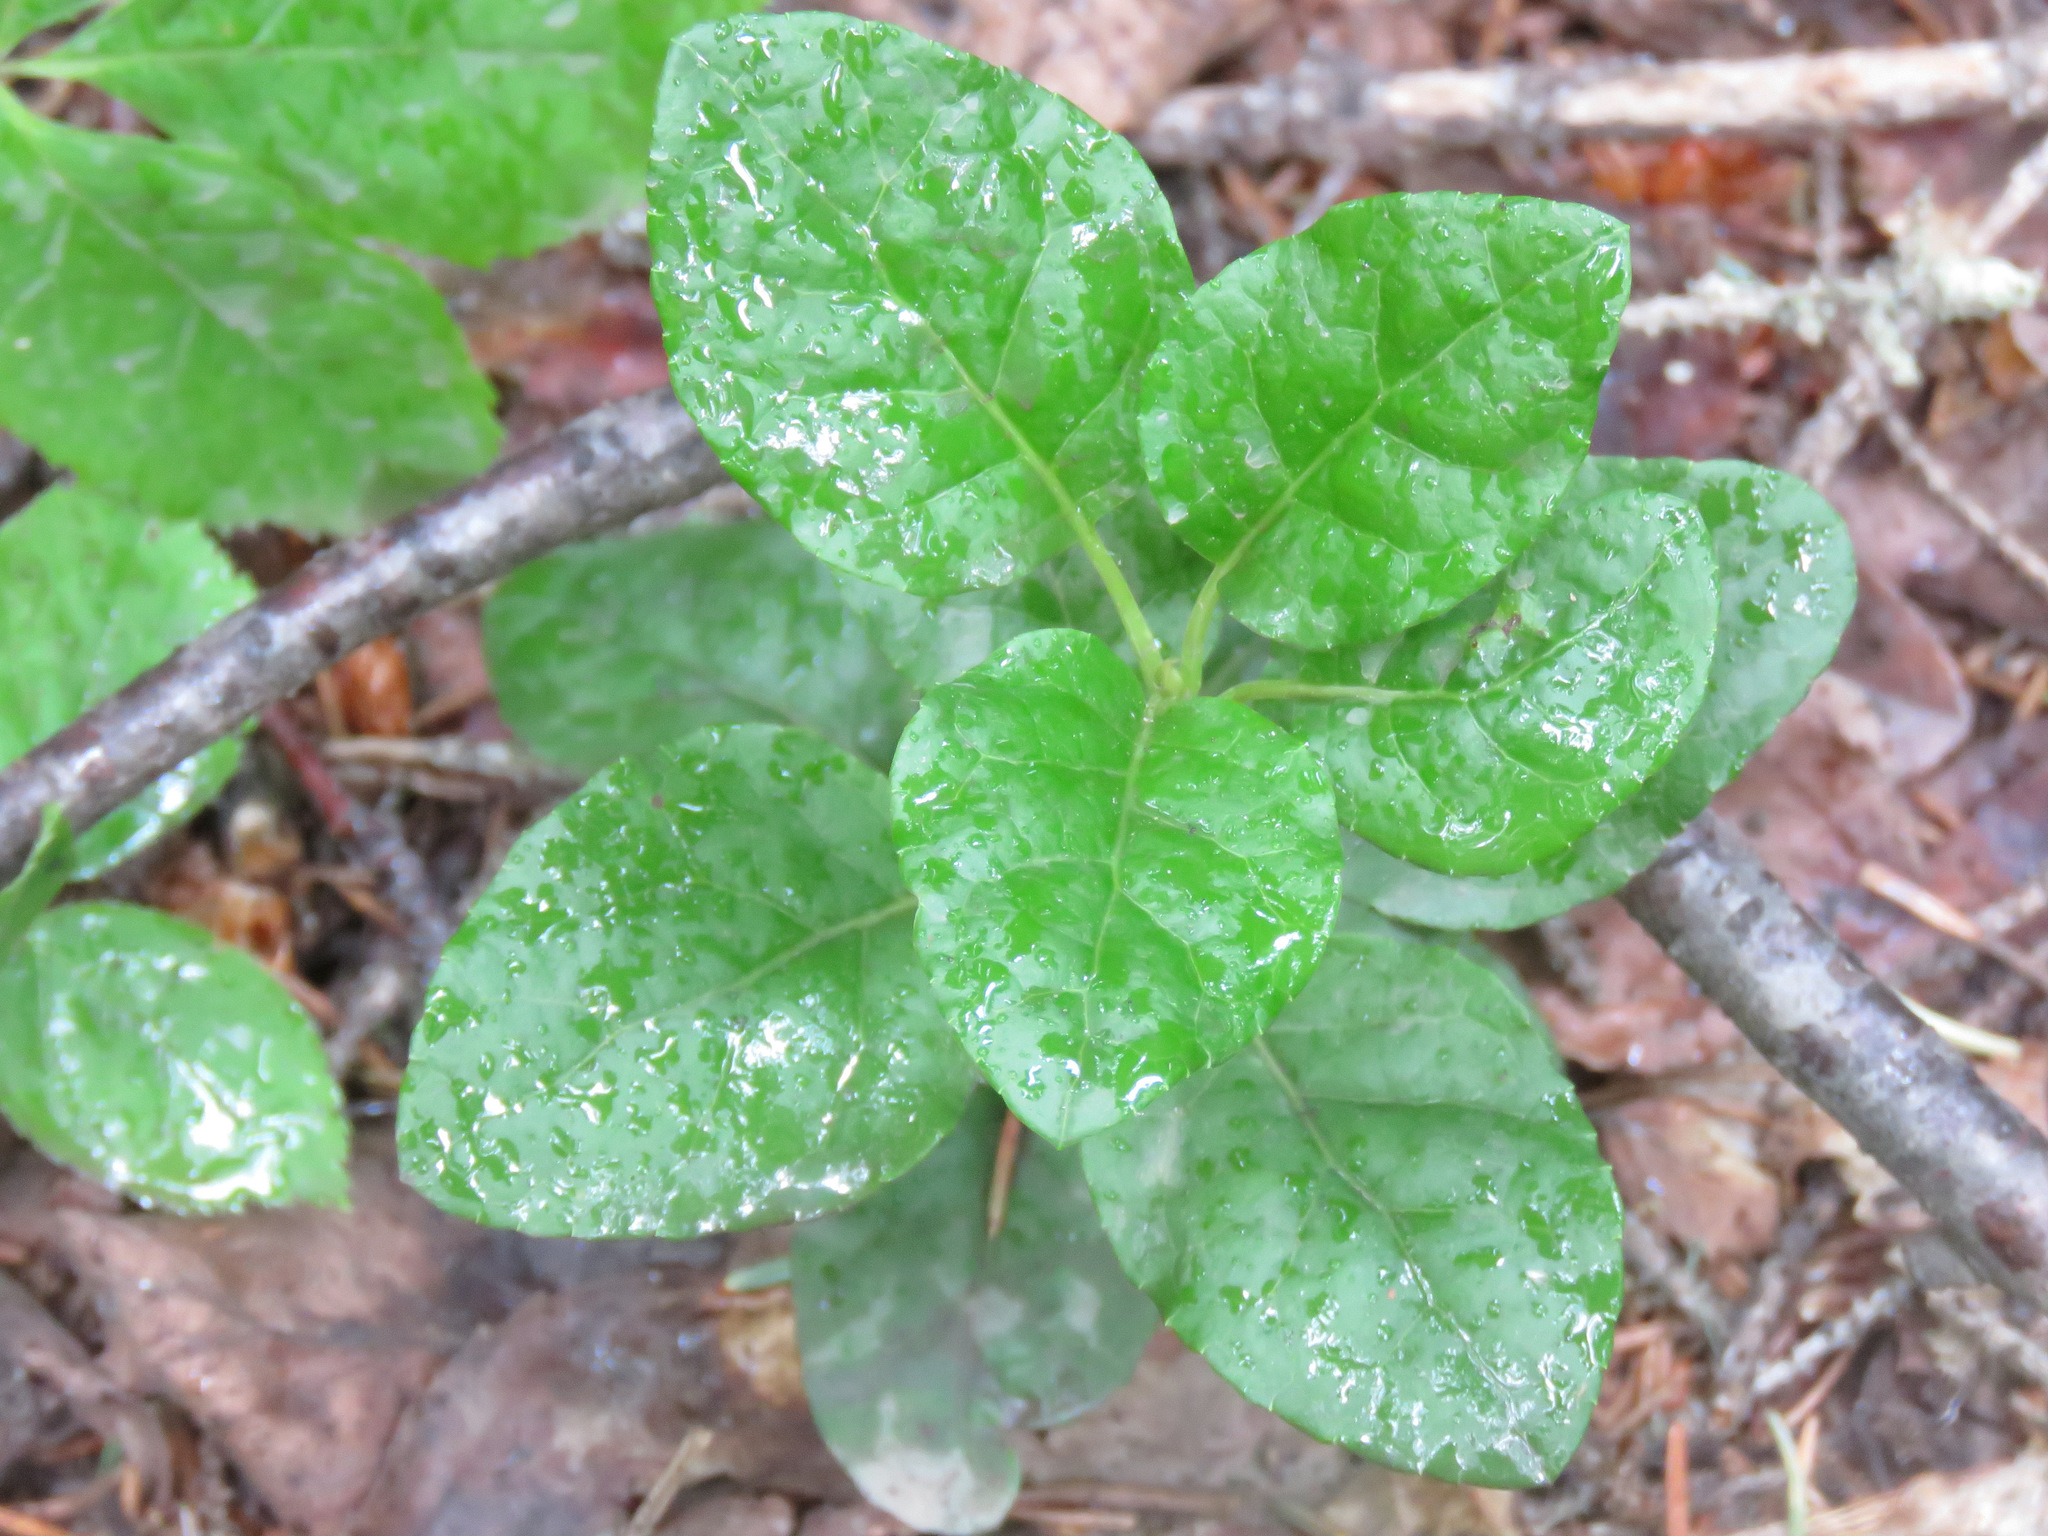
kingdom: Plantae
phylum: Tracheophyta
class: Magnoliopsida
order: Ericales
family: Ericaceae
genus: Orthilia
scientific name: Orthilia secunda
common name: One-sided orthilia
